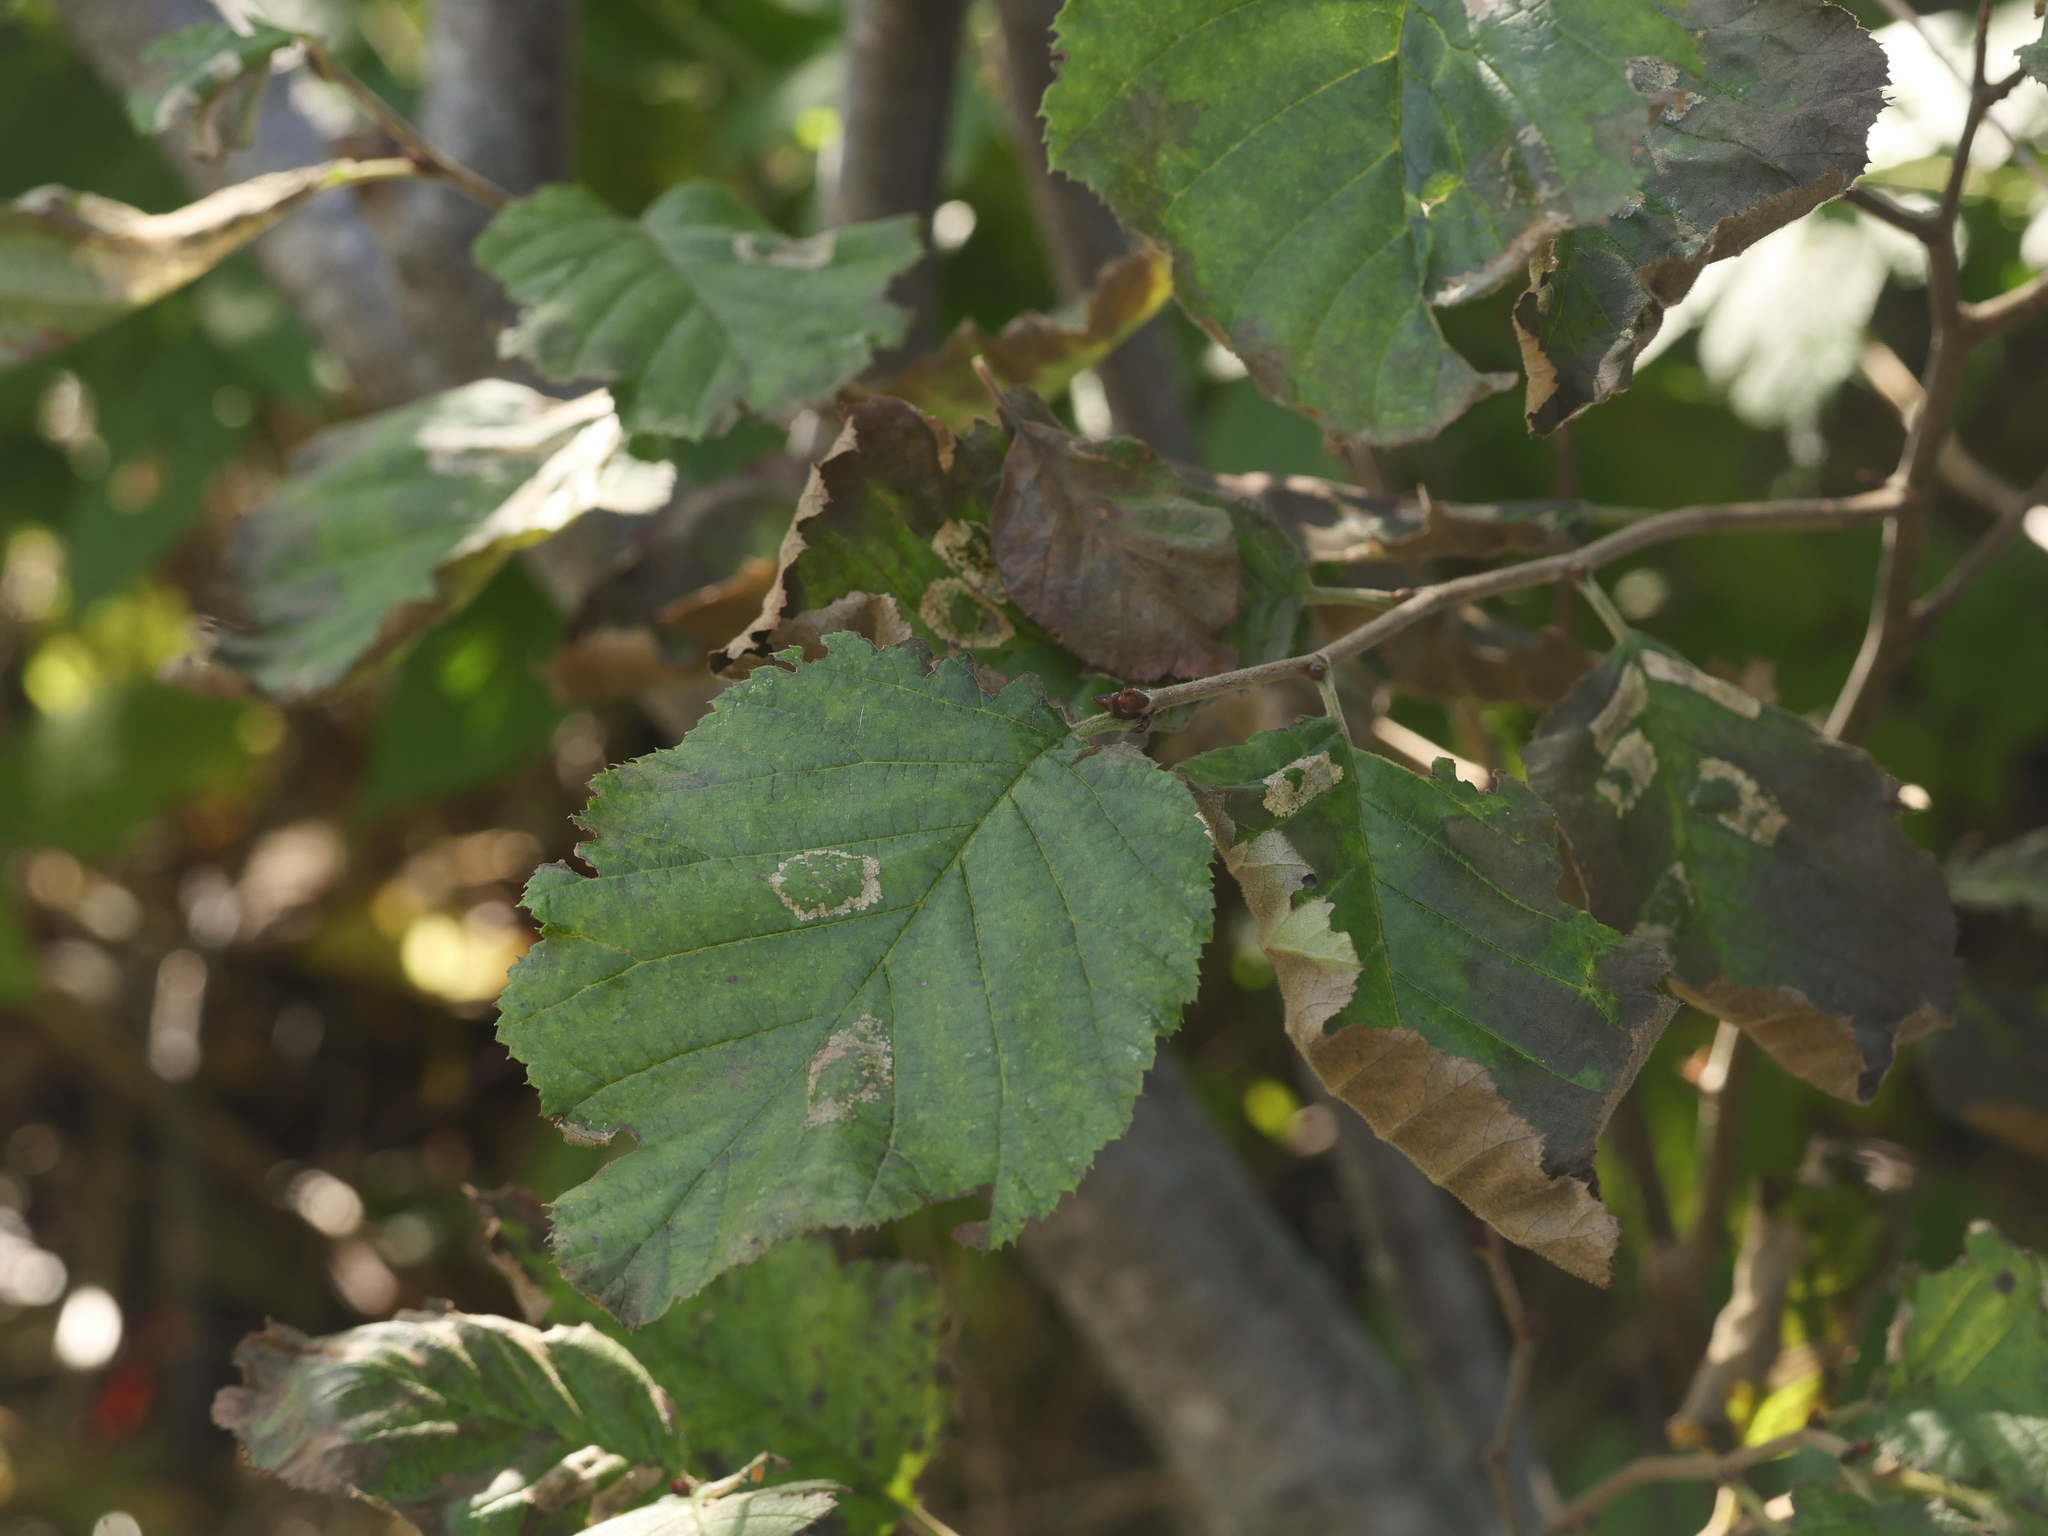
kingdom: Plantae
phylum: Tracheophyta
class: Magnoliopsida
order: Fagales
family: Betulaceae
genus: Alnus
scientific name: Alnus incana
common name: Grey alder
